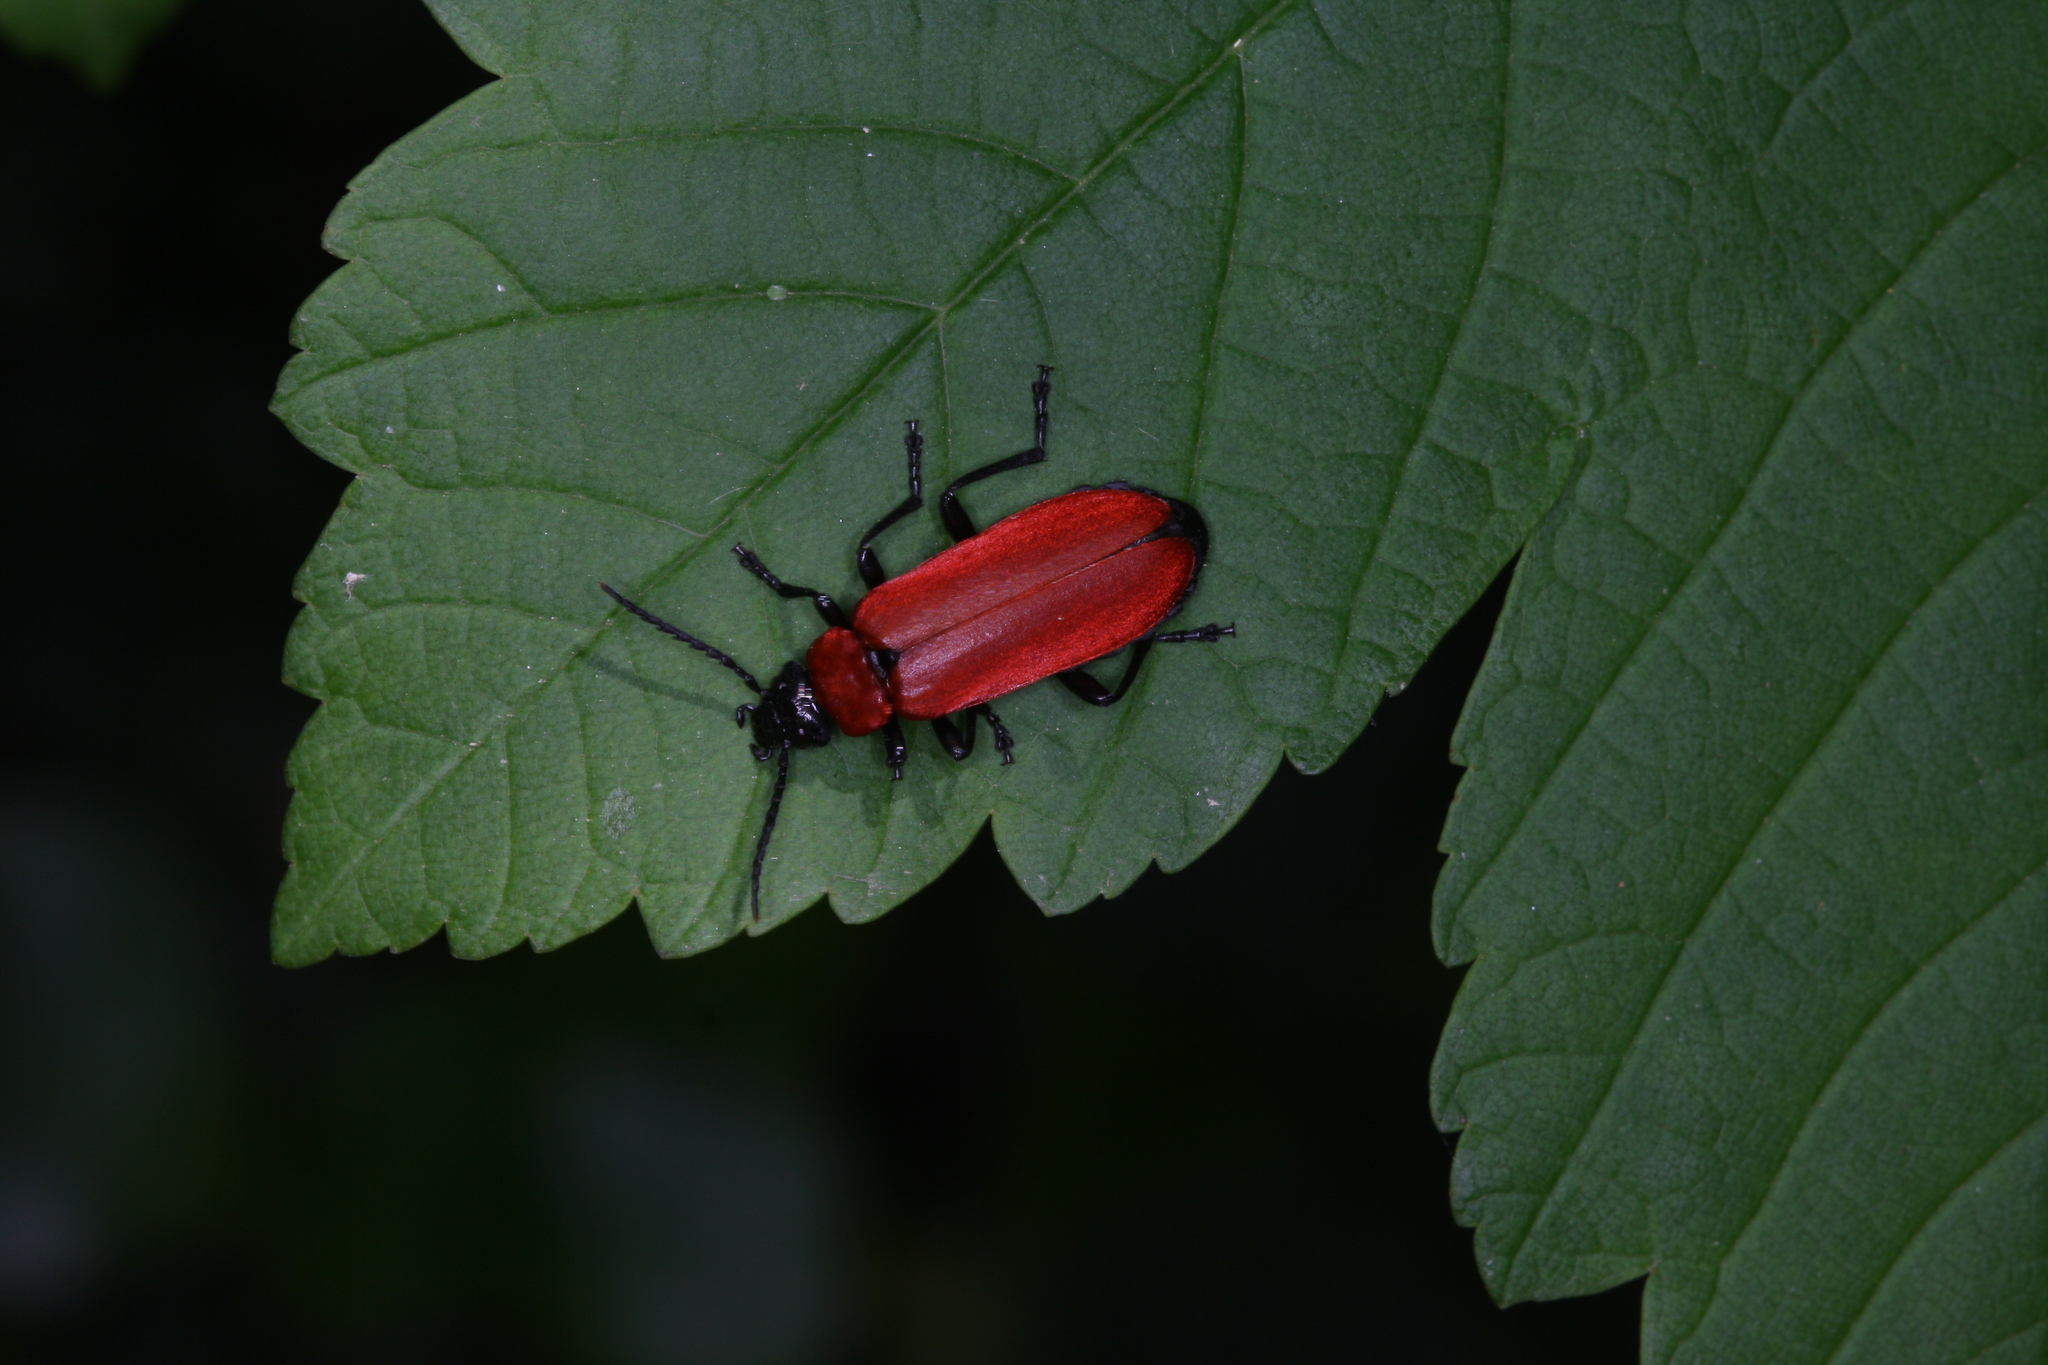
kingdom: Animalia
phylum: Arthropoda
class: Insecta
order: Coleoptera
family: Pyrochroidae
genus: Pyrochroa
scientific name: Pyrochroa coccinea
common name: Black-headed cardinal beetle
